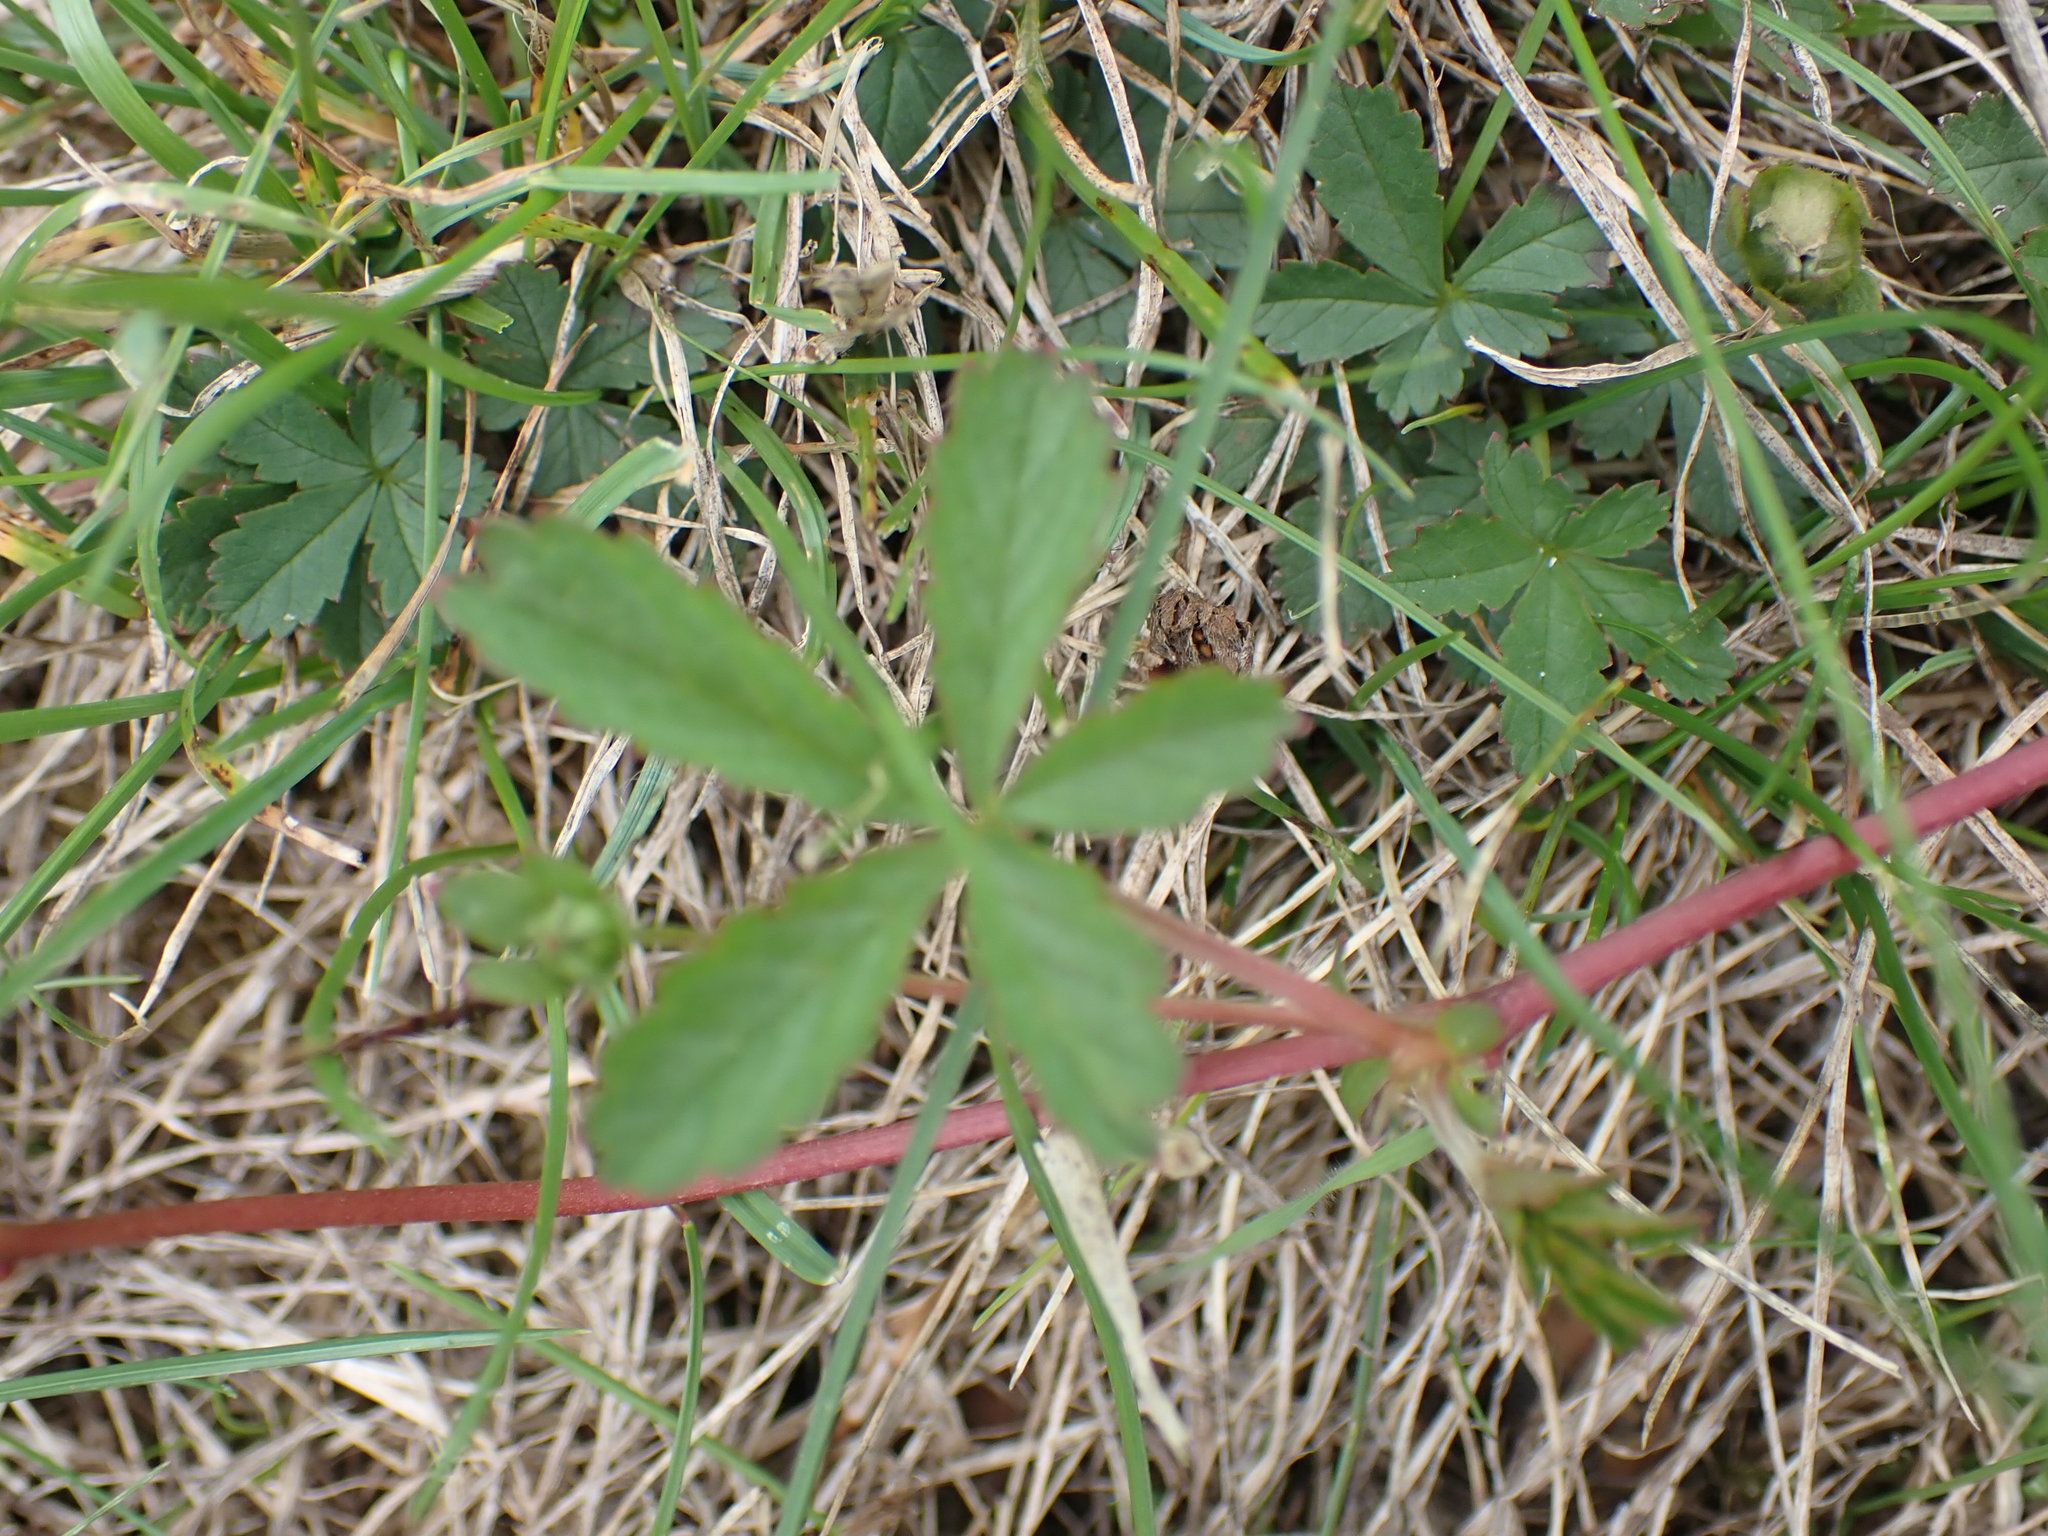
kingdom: Plantae
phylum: Tracheophyta
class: Magnoliopsida
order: Rosales
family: Rosaceae
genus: Potentilla
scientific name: Potentilla reptans
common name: Creeping cinquefoil
